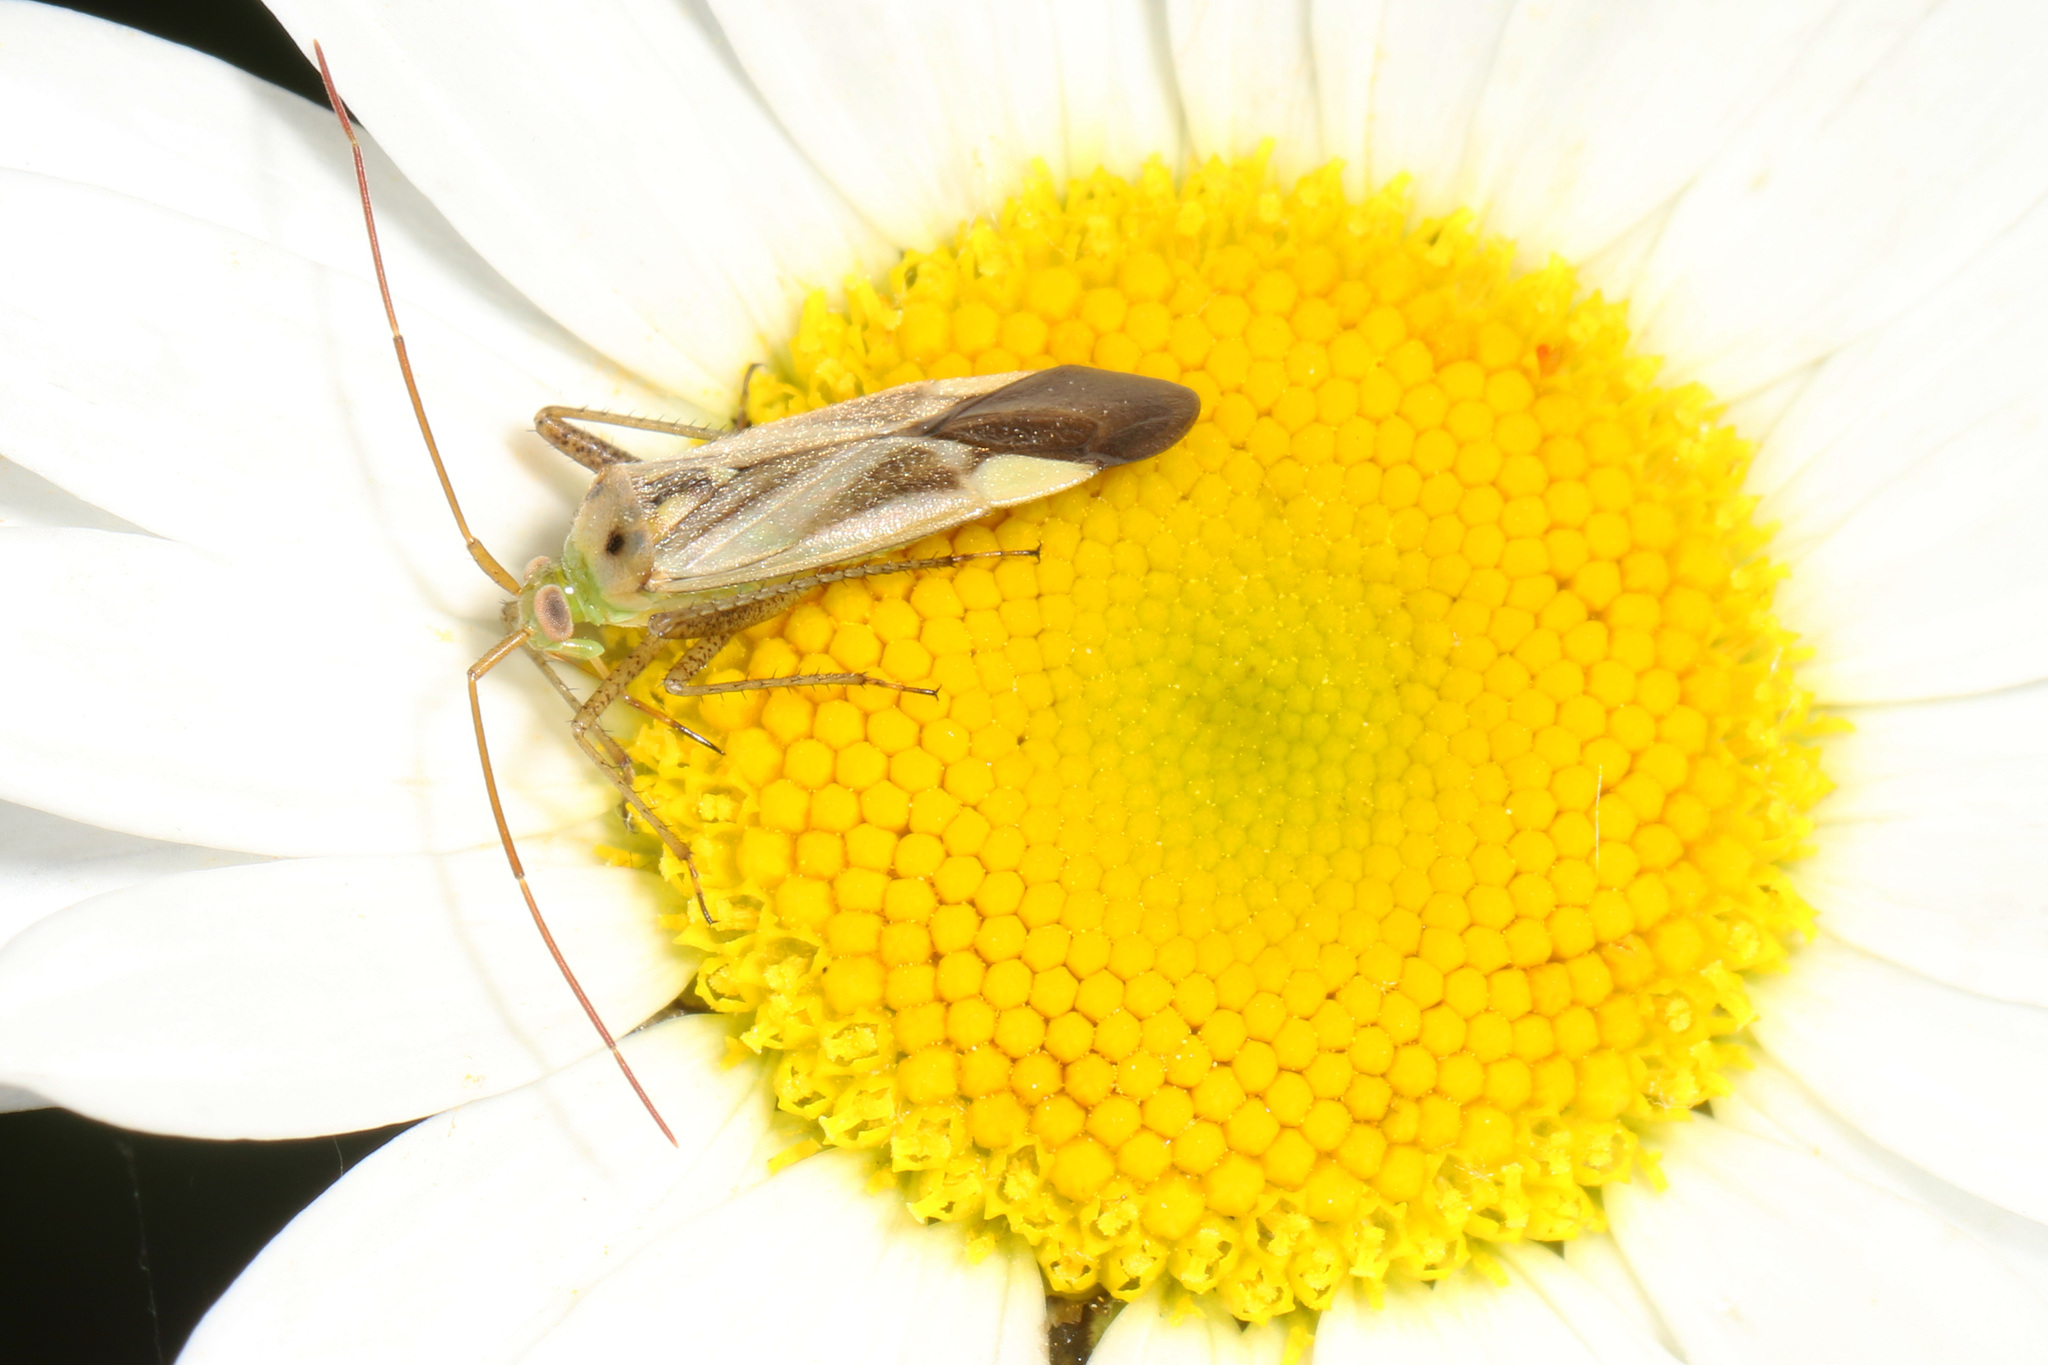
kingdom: Animalia
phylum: Arthropoda
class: Insecta
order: Hemiptera
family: Miridae
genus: Adelphocoris
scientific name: Adelphocoris lineolatus
